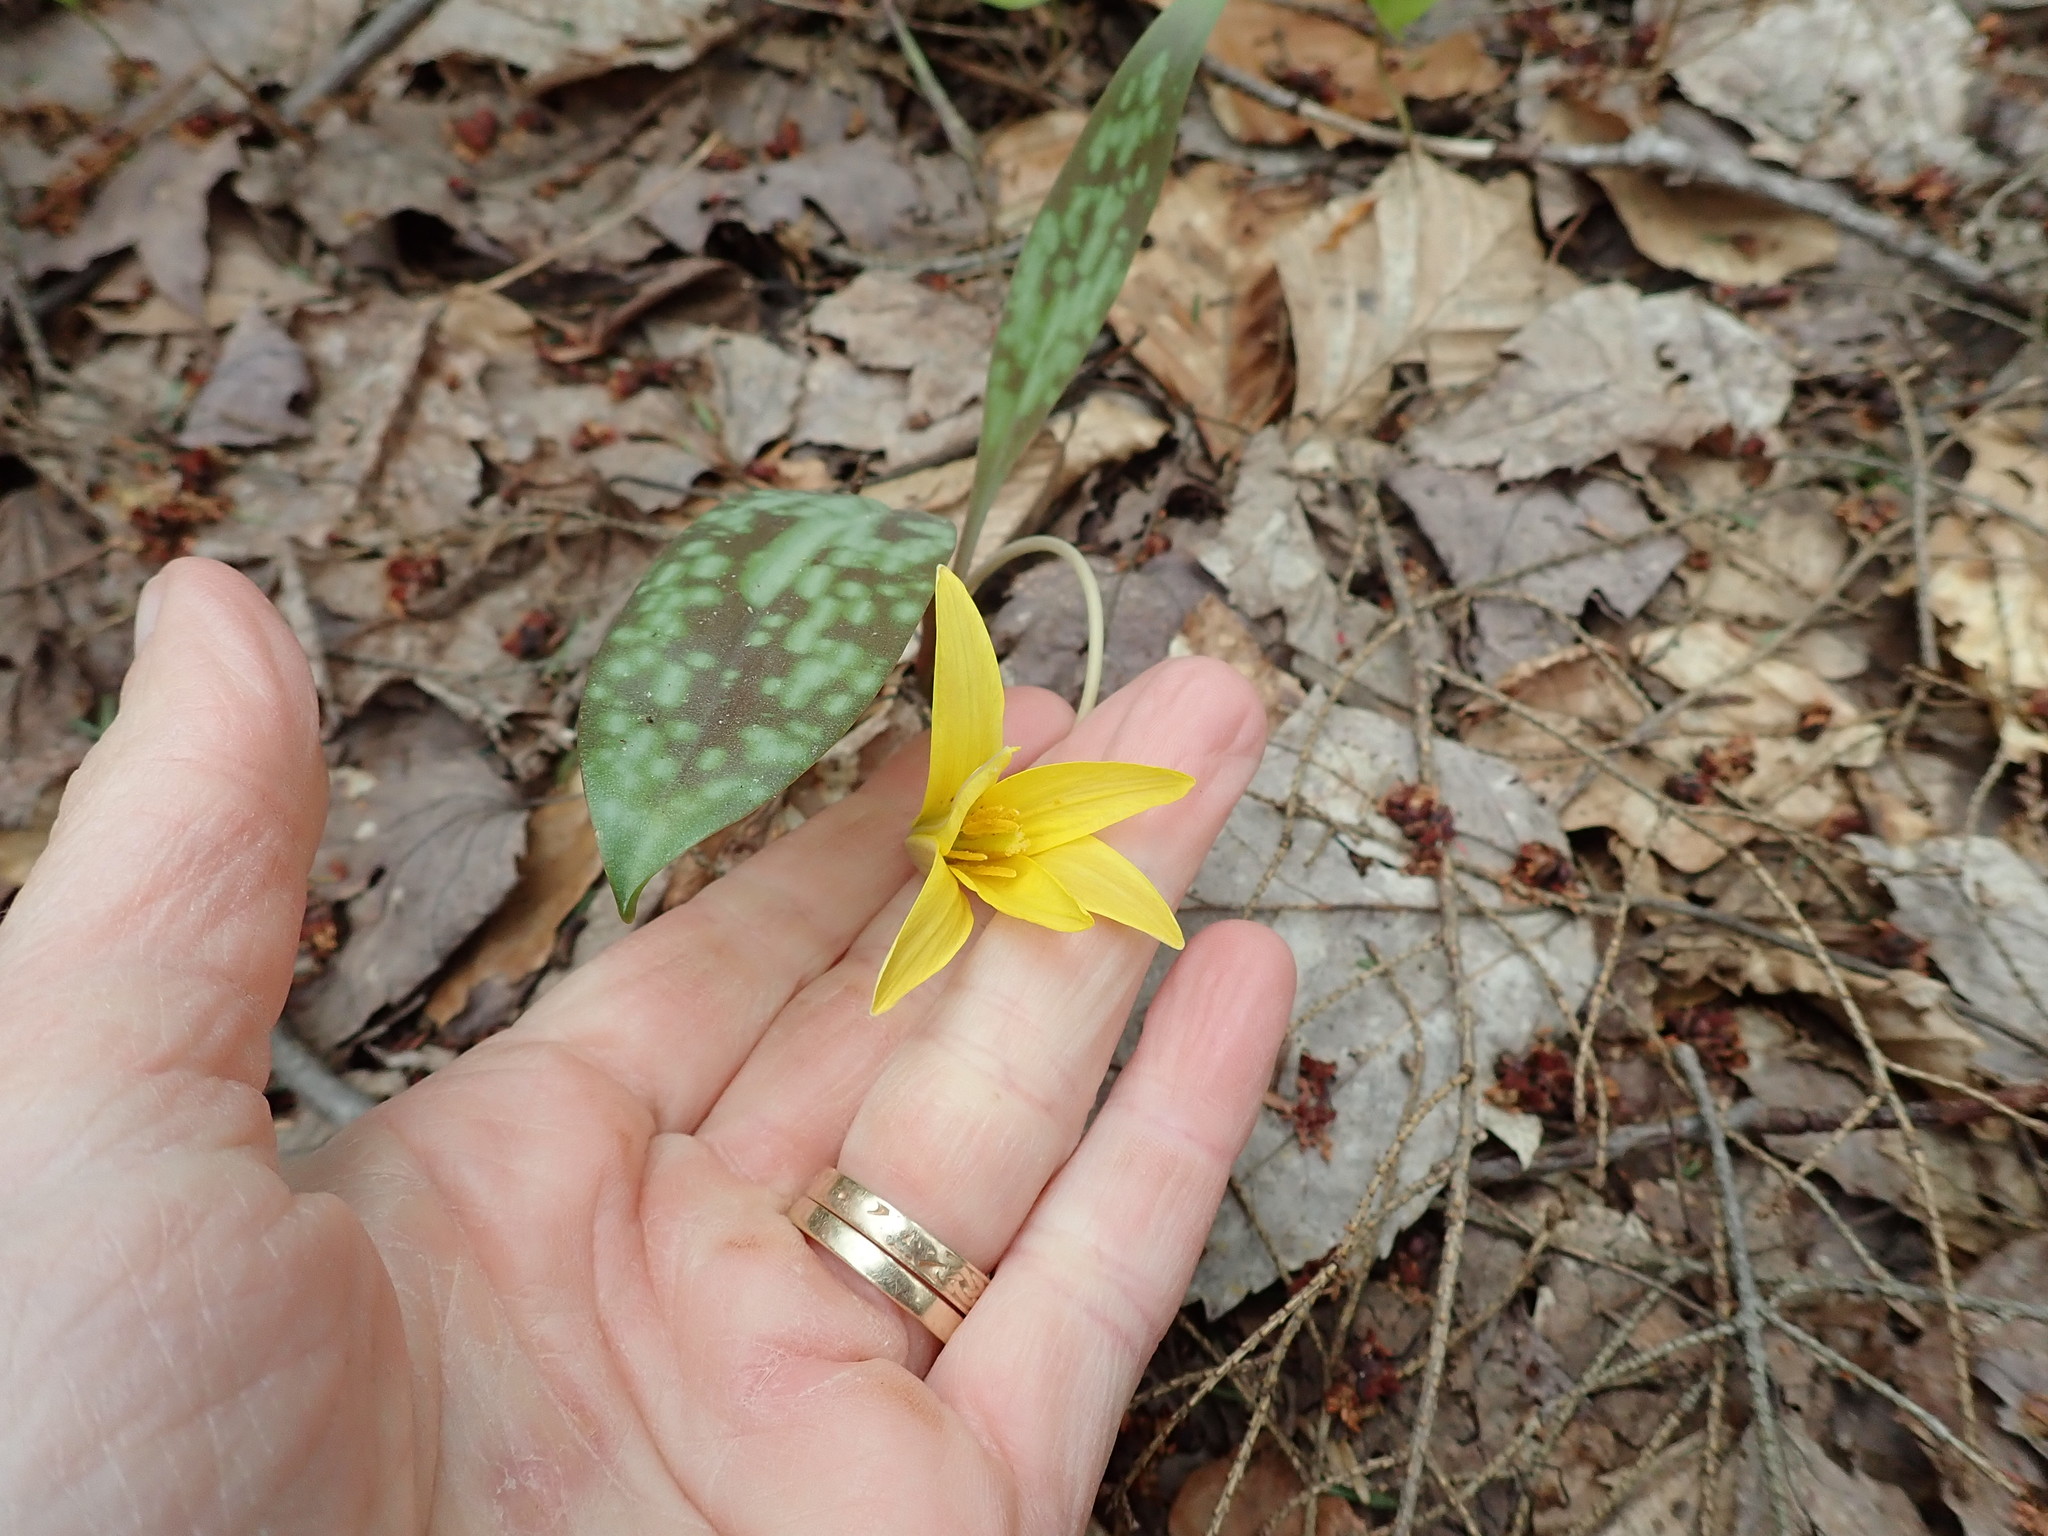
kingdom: Plantae
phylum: Tracheophyta
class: Liliopsida
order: Liliales
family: Liliaceae
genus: Erythronium
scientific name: Erythronium americanum
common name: Yellow adder's-tongue
